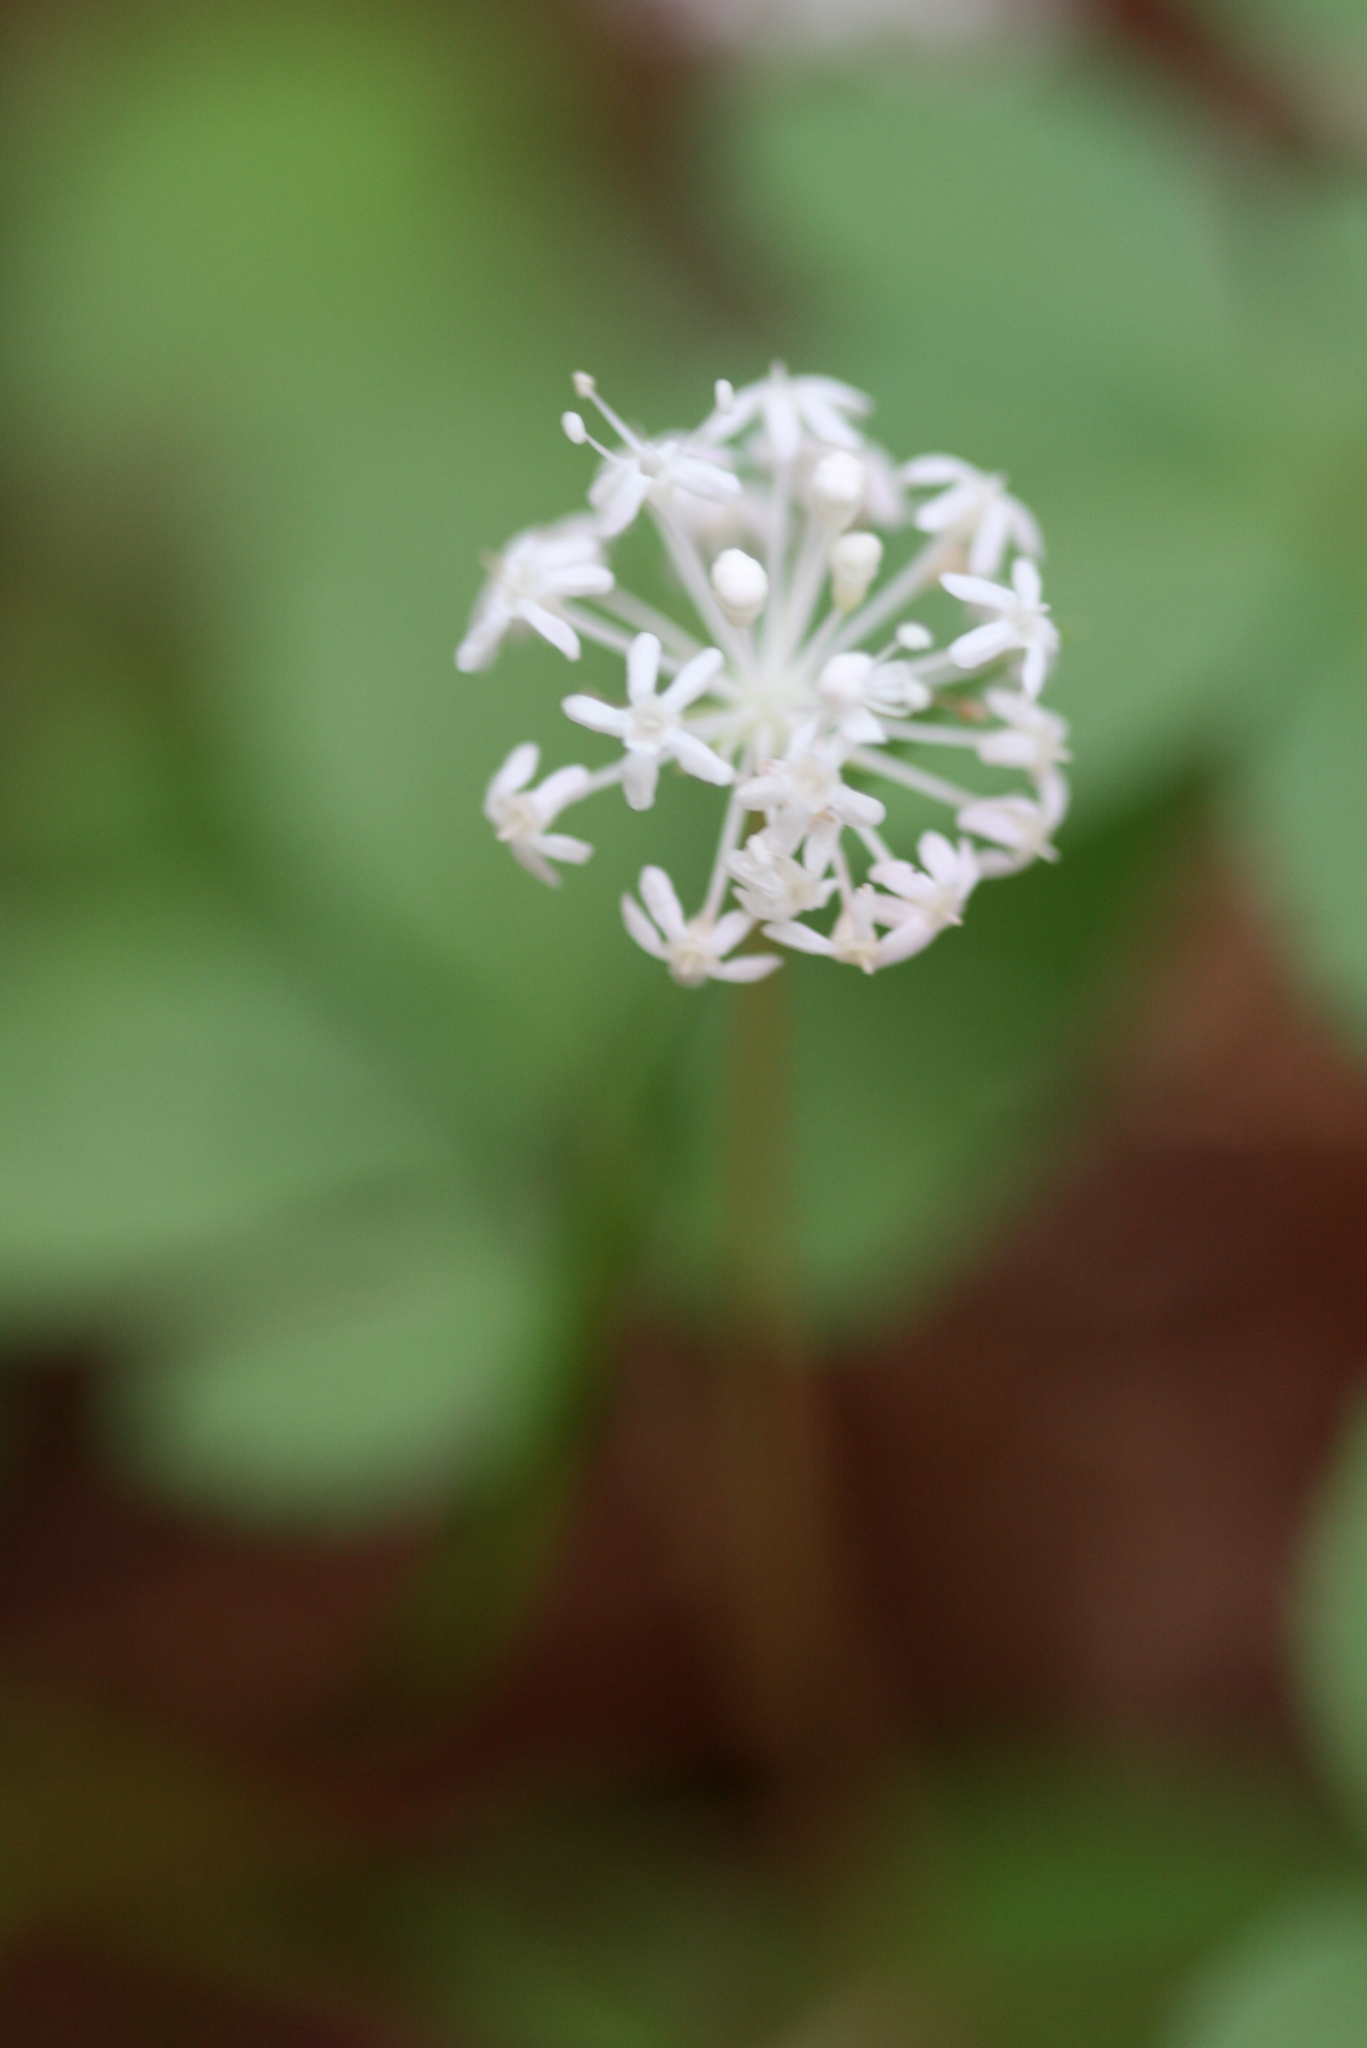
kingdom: Plantae
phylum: Tracheophyta
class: Magnoliopsida
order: Apiales
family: Araliaceae
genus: Panax
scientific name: Panax trifolius
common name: Dwarf ginseng
